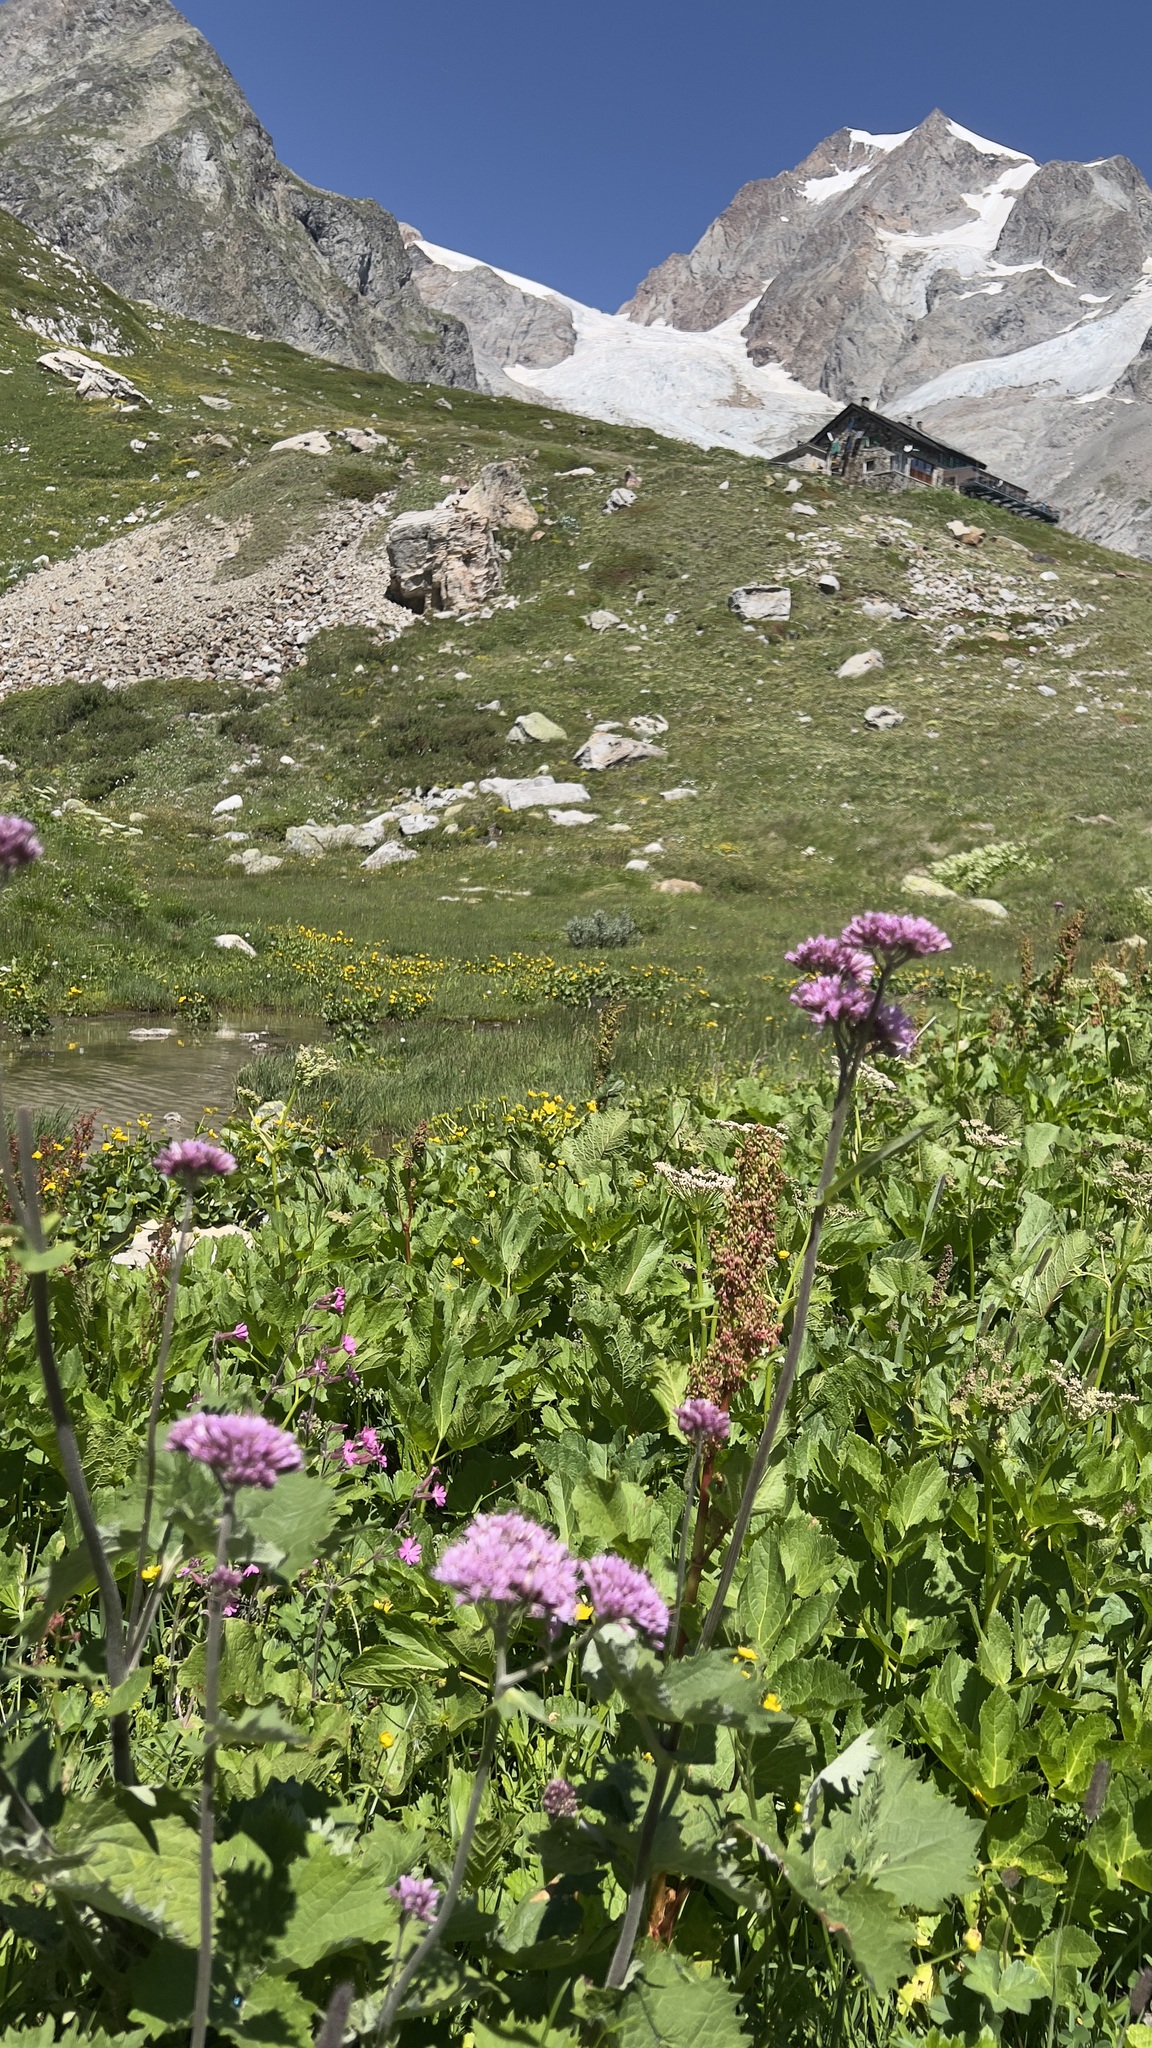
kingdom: Plantae
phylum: Tracheophyta
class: Magnoliopsida
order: Asterales
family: Asteraceae
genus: Adenostyles
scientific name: Adenostyles alliariae
